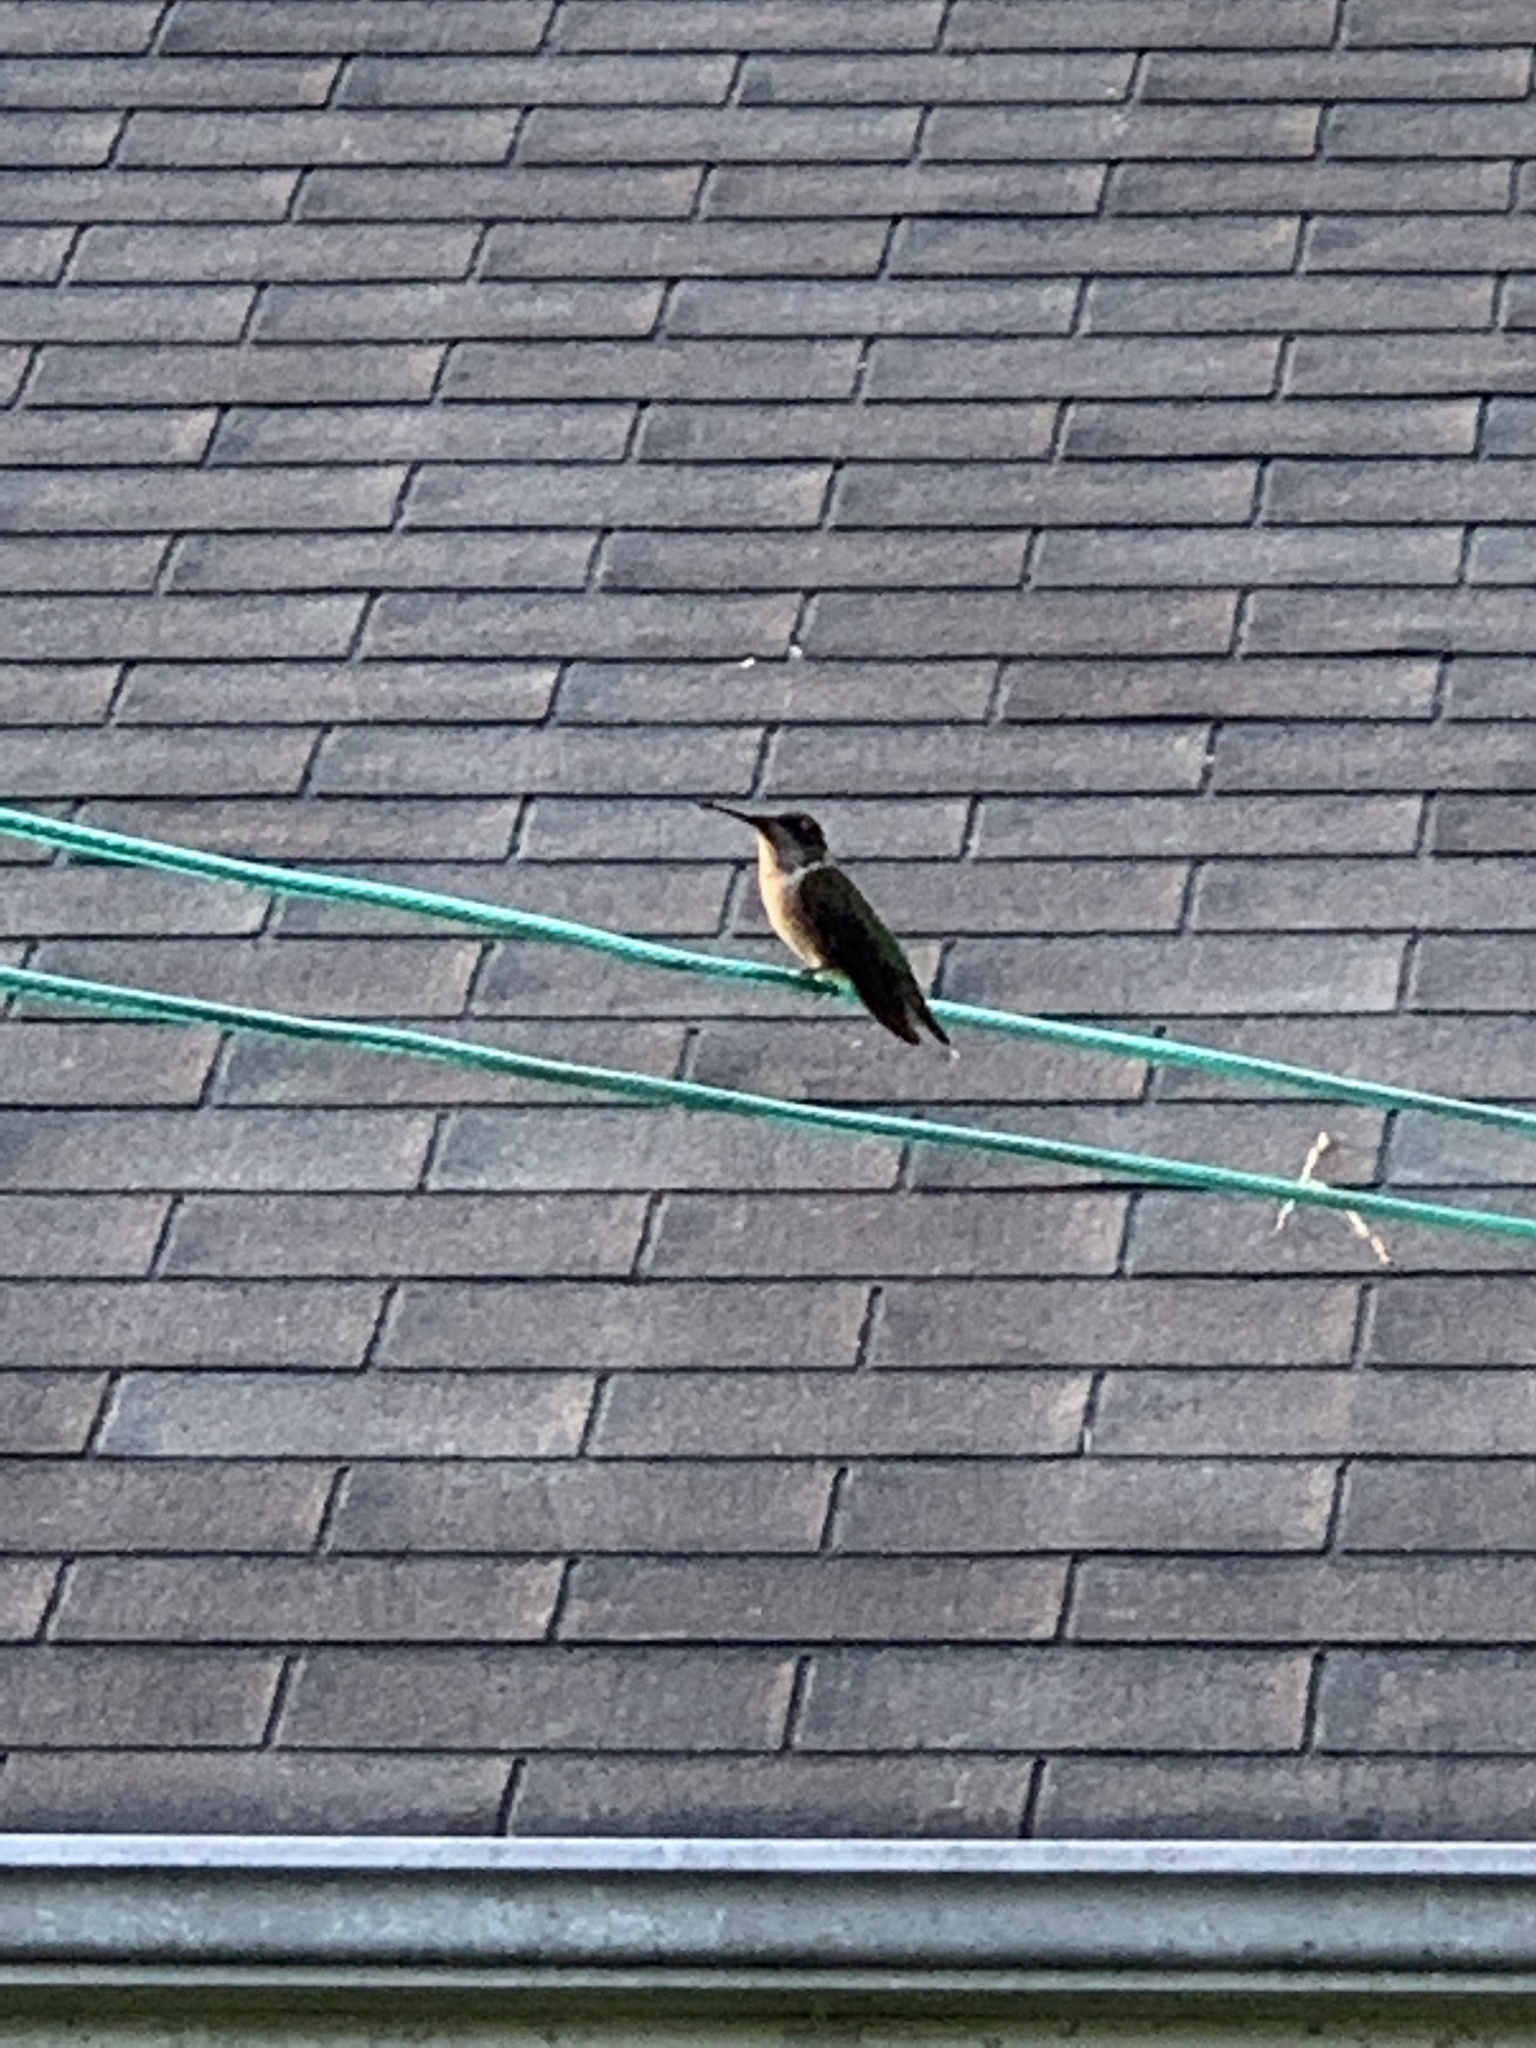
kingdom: Animalia
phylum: Chordata
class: Aves
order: Apodiformes
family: Trochilidae
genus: Archilochus
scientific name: Archilochus colubris
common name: Ruby-throated hummingbird
